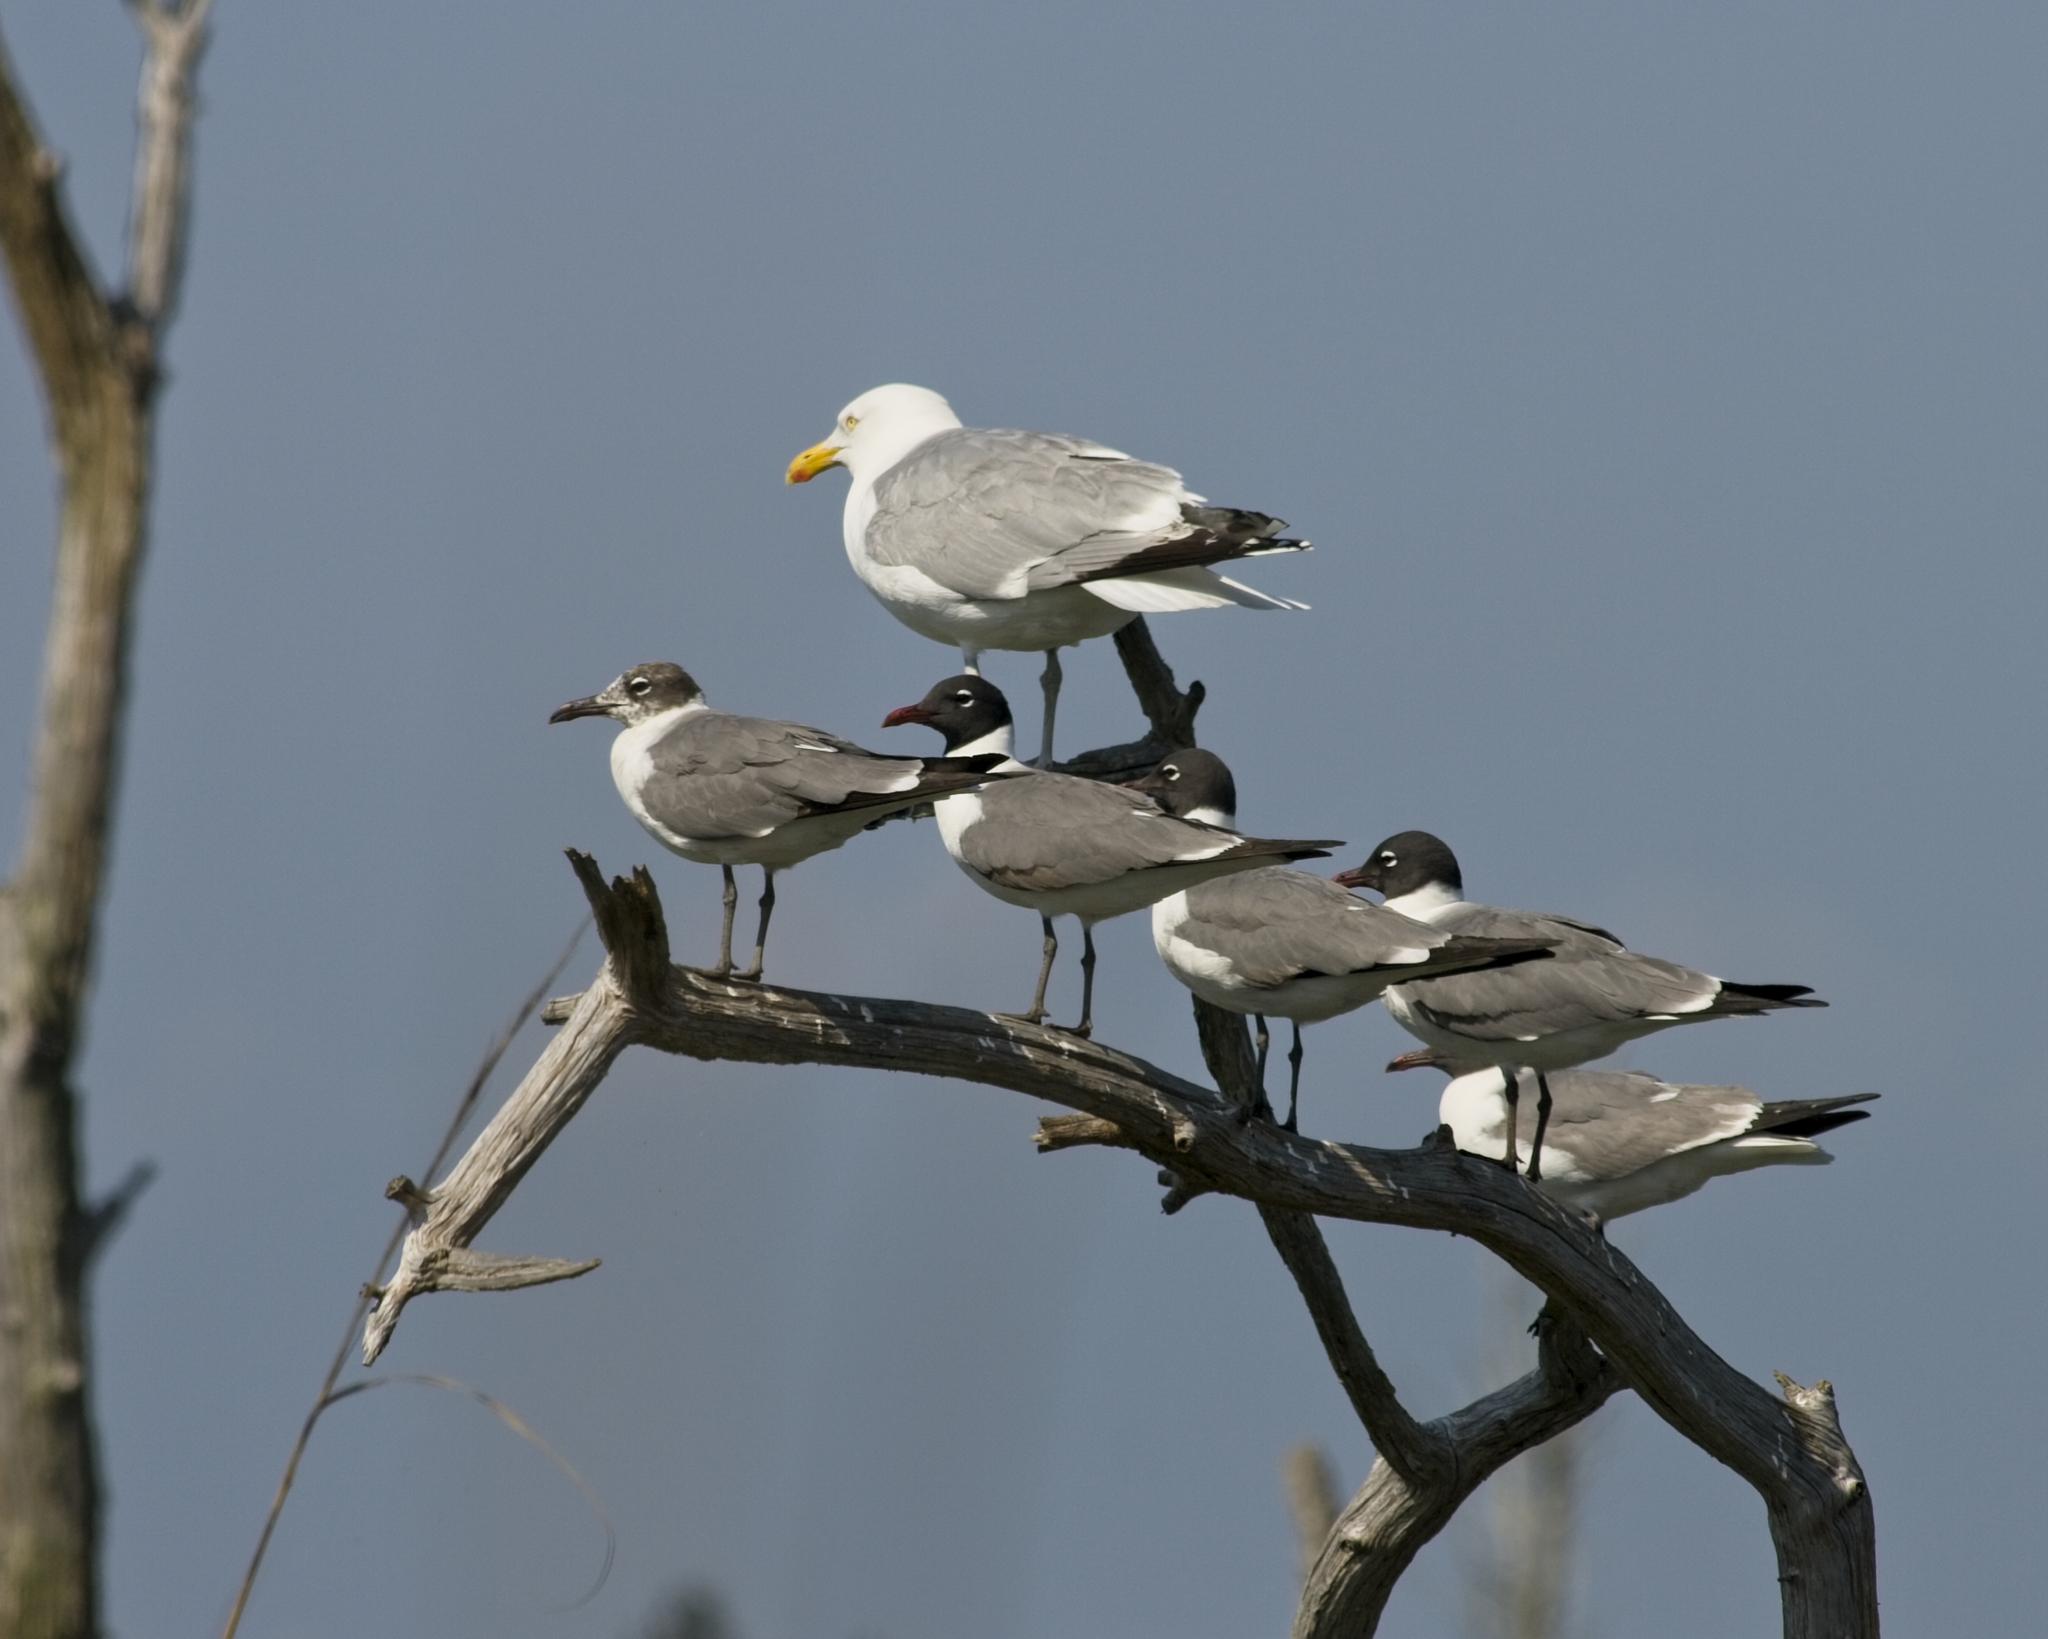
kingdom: Animalia
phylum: Chordata
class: Aves
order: Charadriiformes
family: Laridae
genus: Leucophaeus
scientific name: Leucophaeus atricilla
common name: Laughing gull
